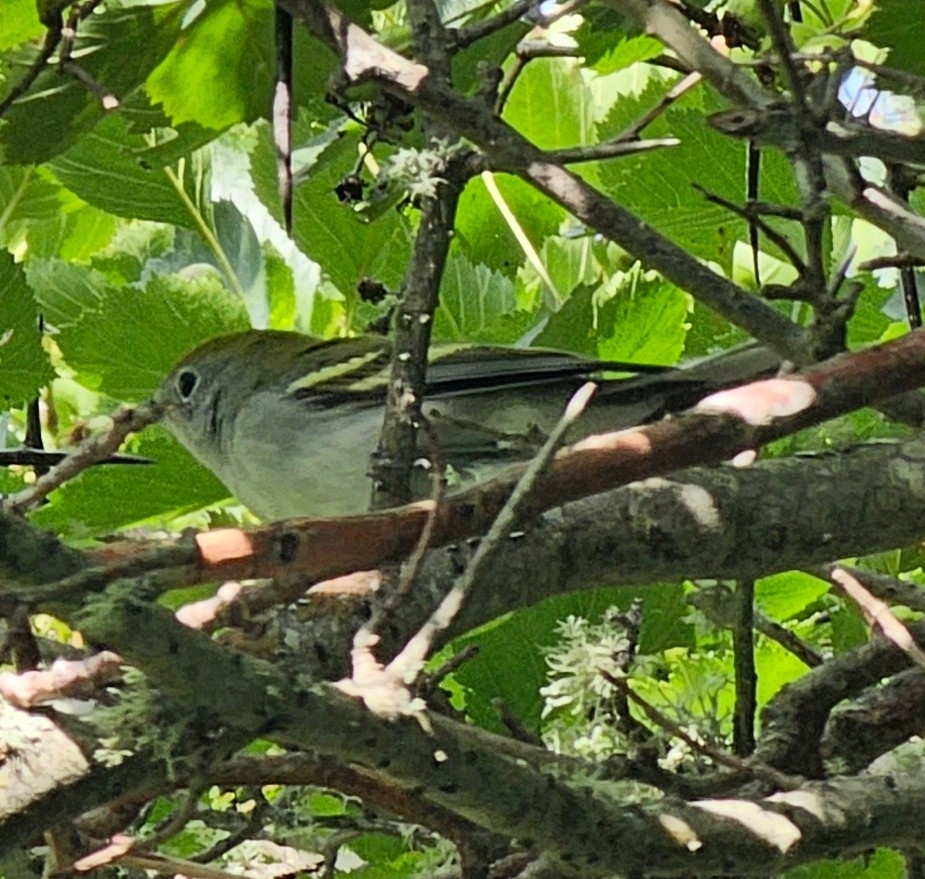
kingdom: Animalia
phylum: Chordata
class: Aves
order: Passeriformes
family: Parulidae
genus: Setophaga
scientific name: Setophaga pensylvanica
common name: Chestnut-sided warbler
